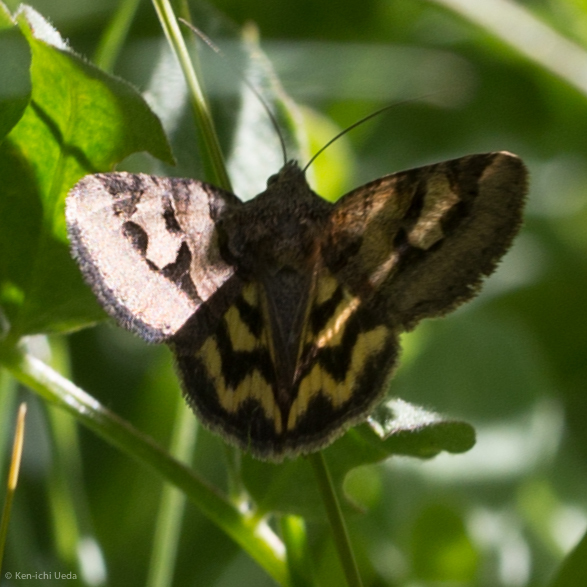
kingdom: Animalia
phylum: Arthropoda
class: Insecta
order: Lepidoptera
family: Erebidae
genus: Drasteria
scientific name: Drasteria adumbrata
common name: Shadowy arches
